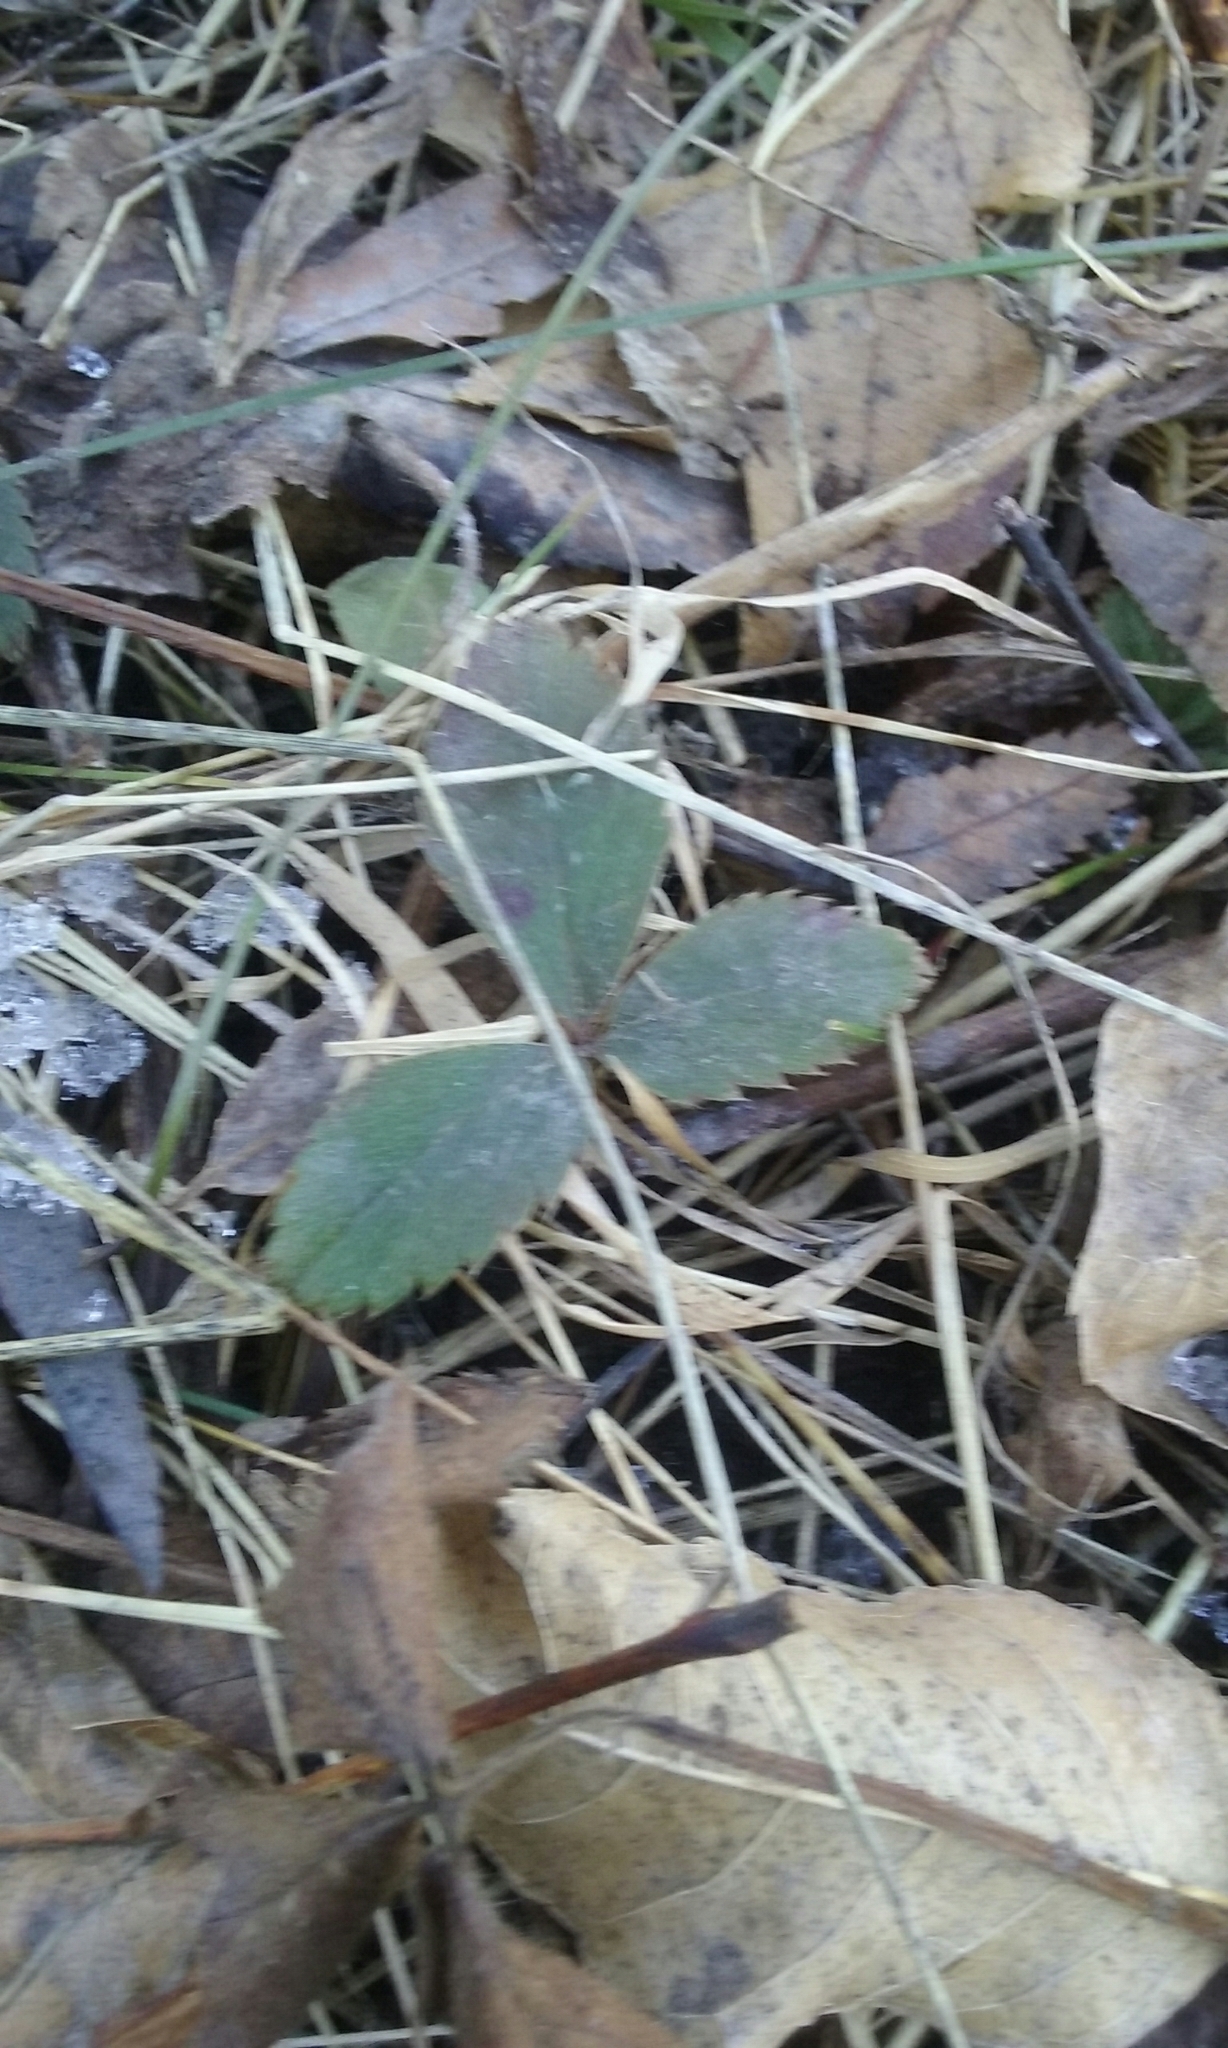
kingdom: Plantae
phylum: Tracheophyta
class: Magnoliopsida
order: Rosales
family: Rosaceae
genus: Fragaria
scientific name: Fragaria virginiana
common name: Thickleaved wild strawberry
